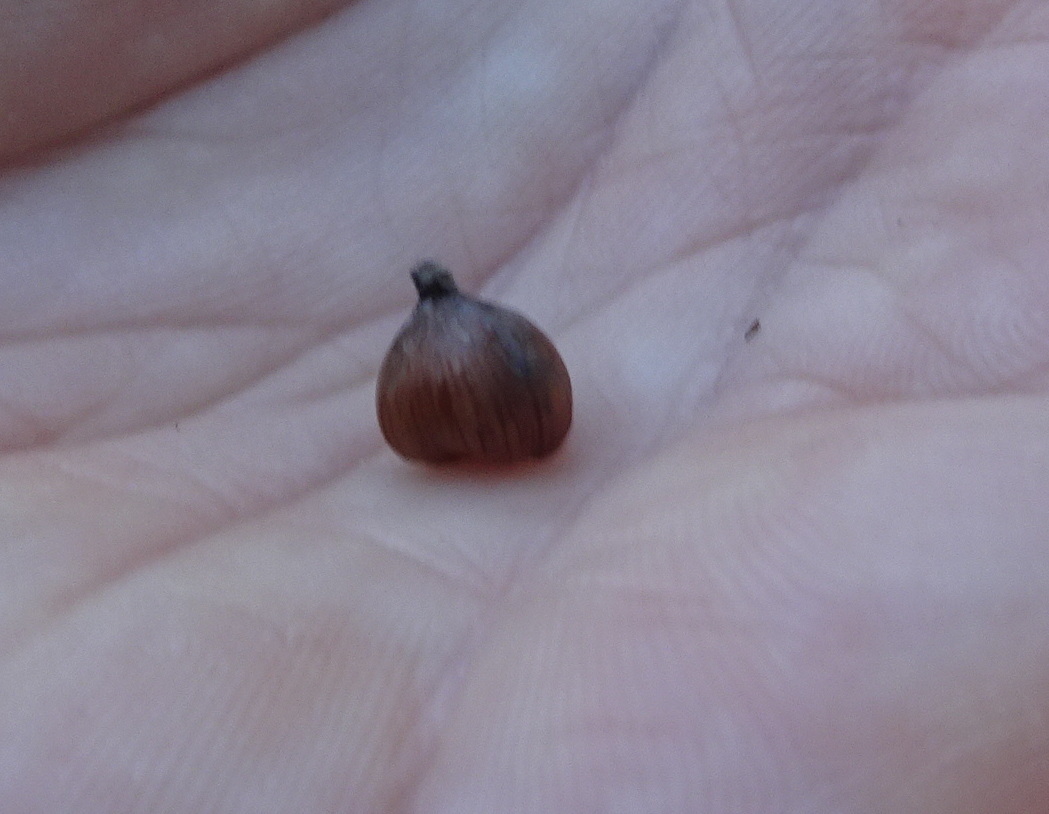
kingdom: Plantae
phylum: Tracheophyta
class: Magnoliopsida
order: Fagales
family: Fagaceae
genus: Chrysolepis
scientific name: Chrysolepis chrysophylla
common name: Giant chinquapin
